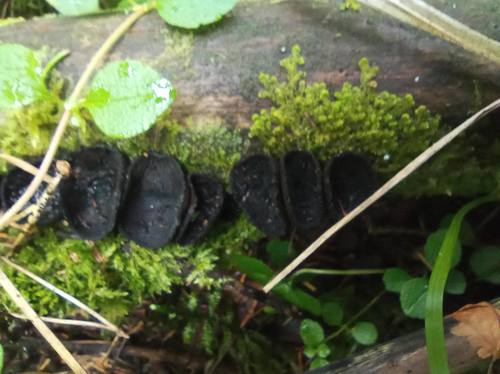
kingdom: Fungi
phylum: Ascomycota
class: Pezizomycetes
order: Pezizales
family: Sarcosomataceae
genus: Pseudoplectania
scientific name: Pseudoplectania nigrella
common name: Ebony cup
